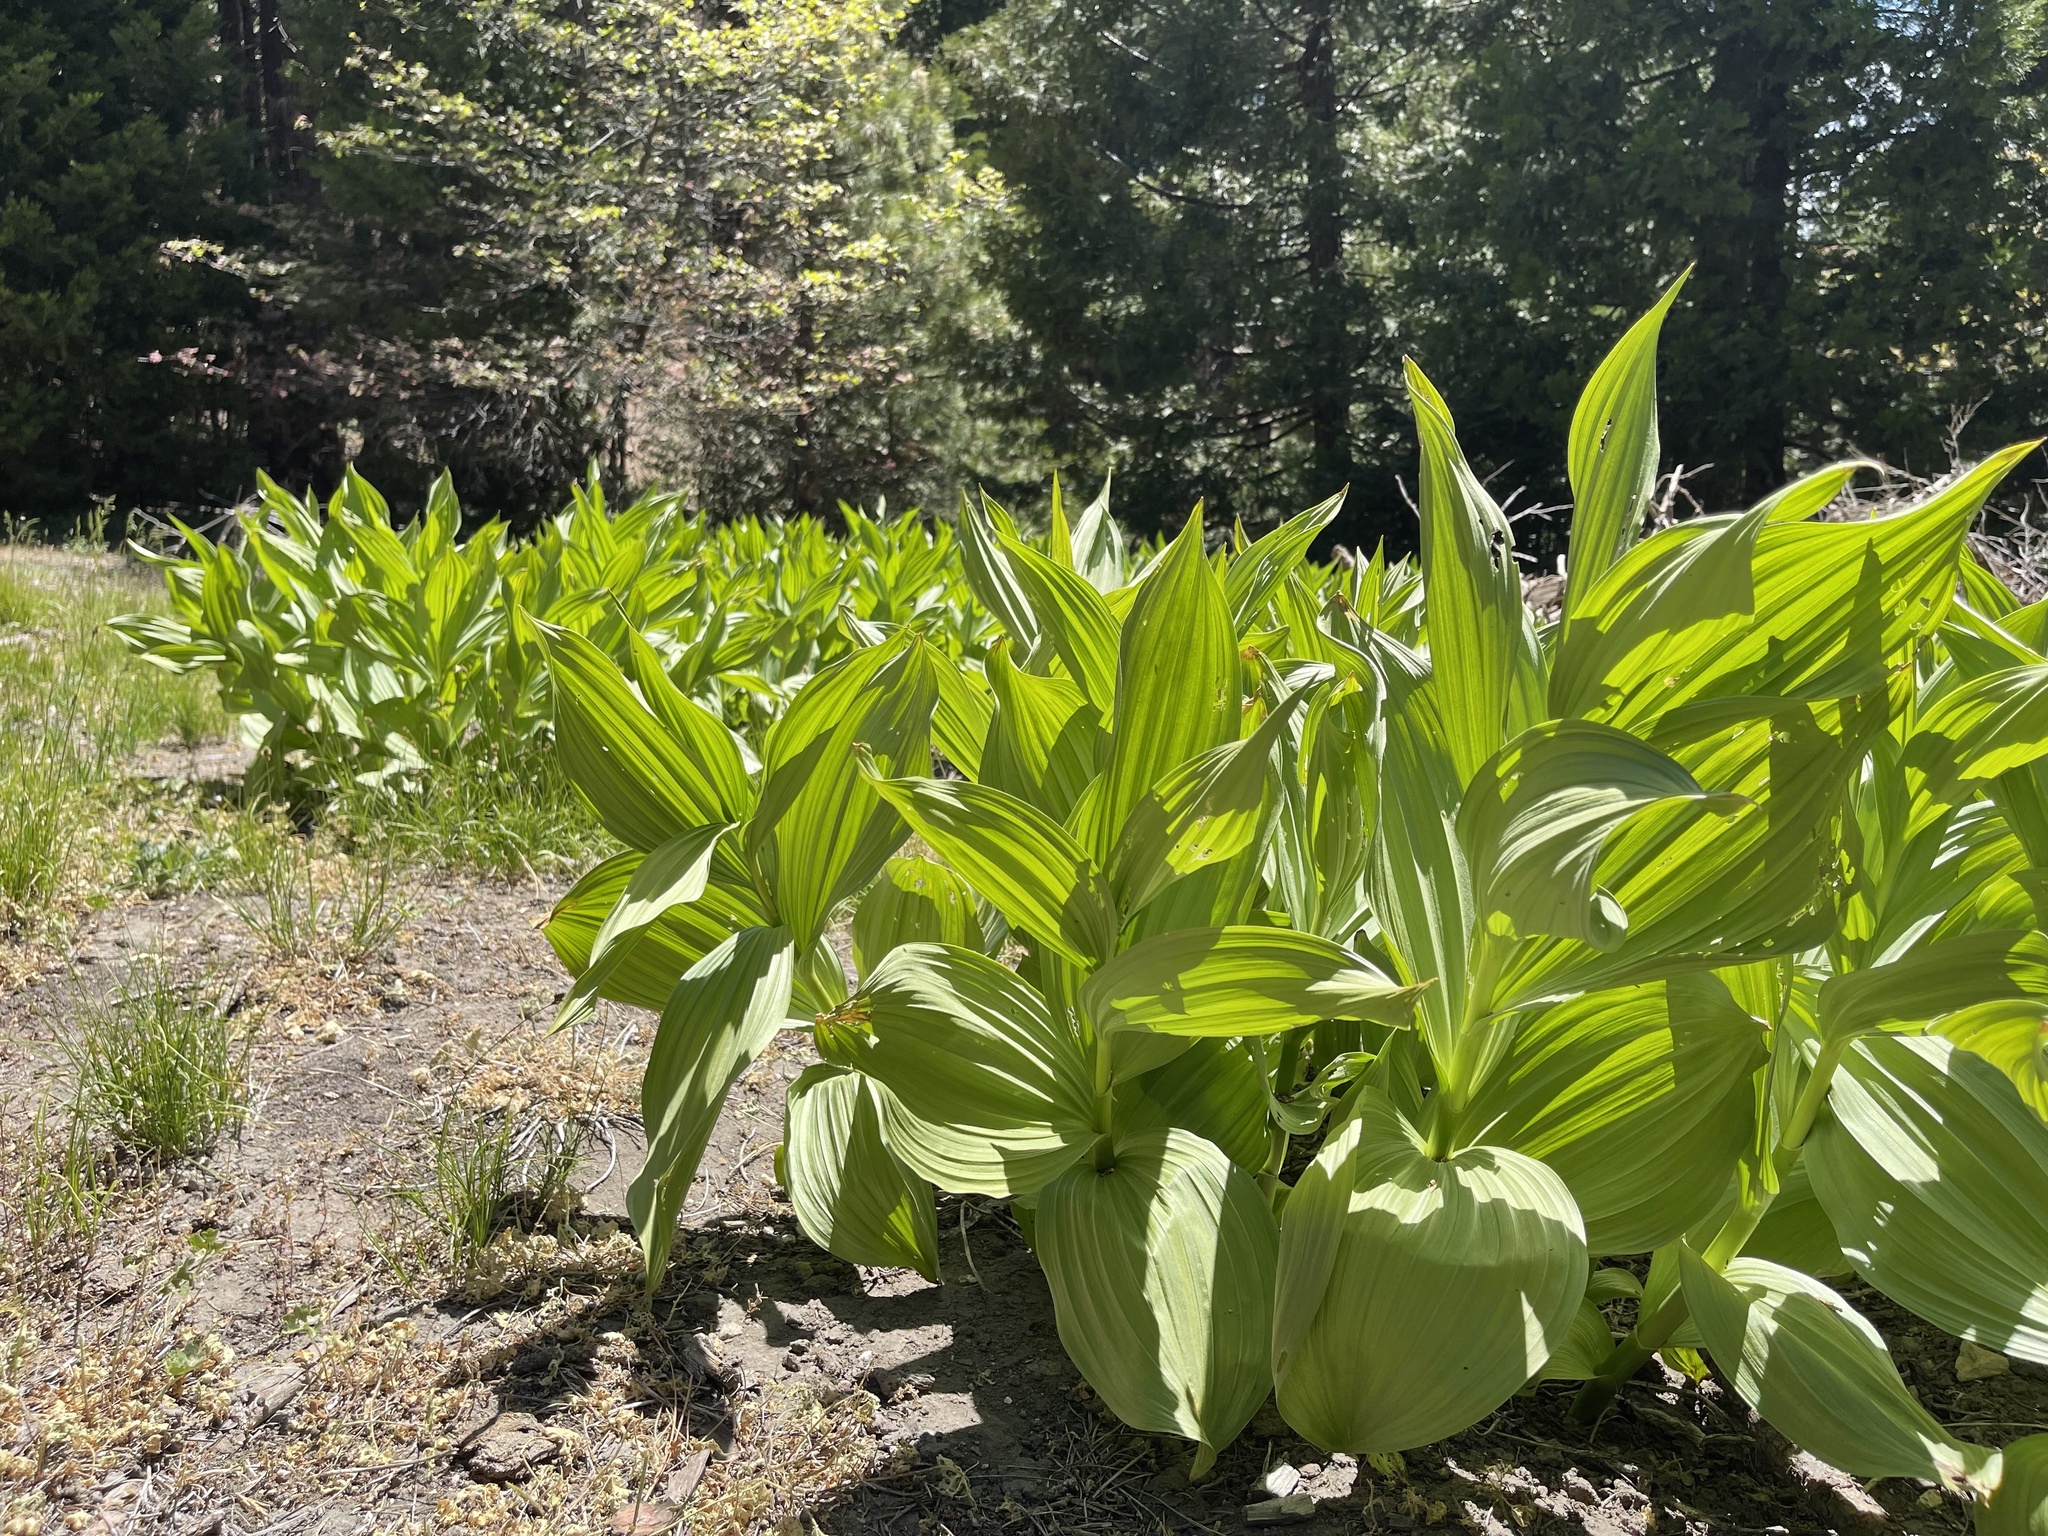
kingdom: Plantae
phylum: Tracheophyta
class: Liliopsida
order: Liliales
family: Melanthiaceae
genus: Veratrum
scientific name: Veratrum californicum
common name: California veratrum
